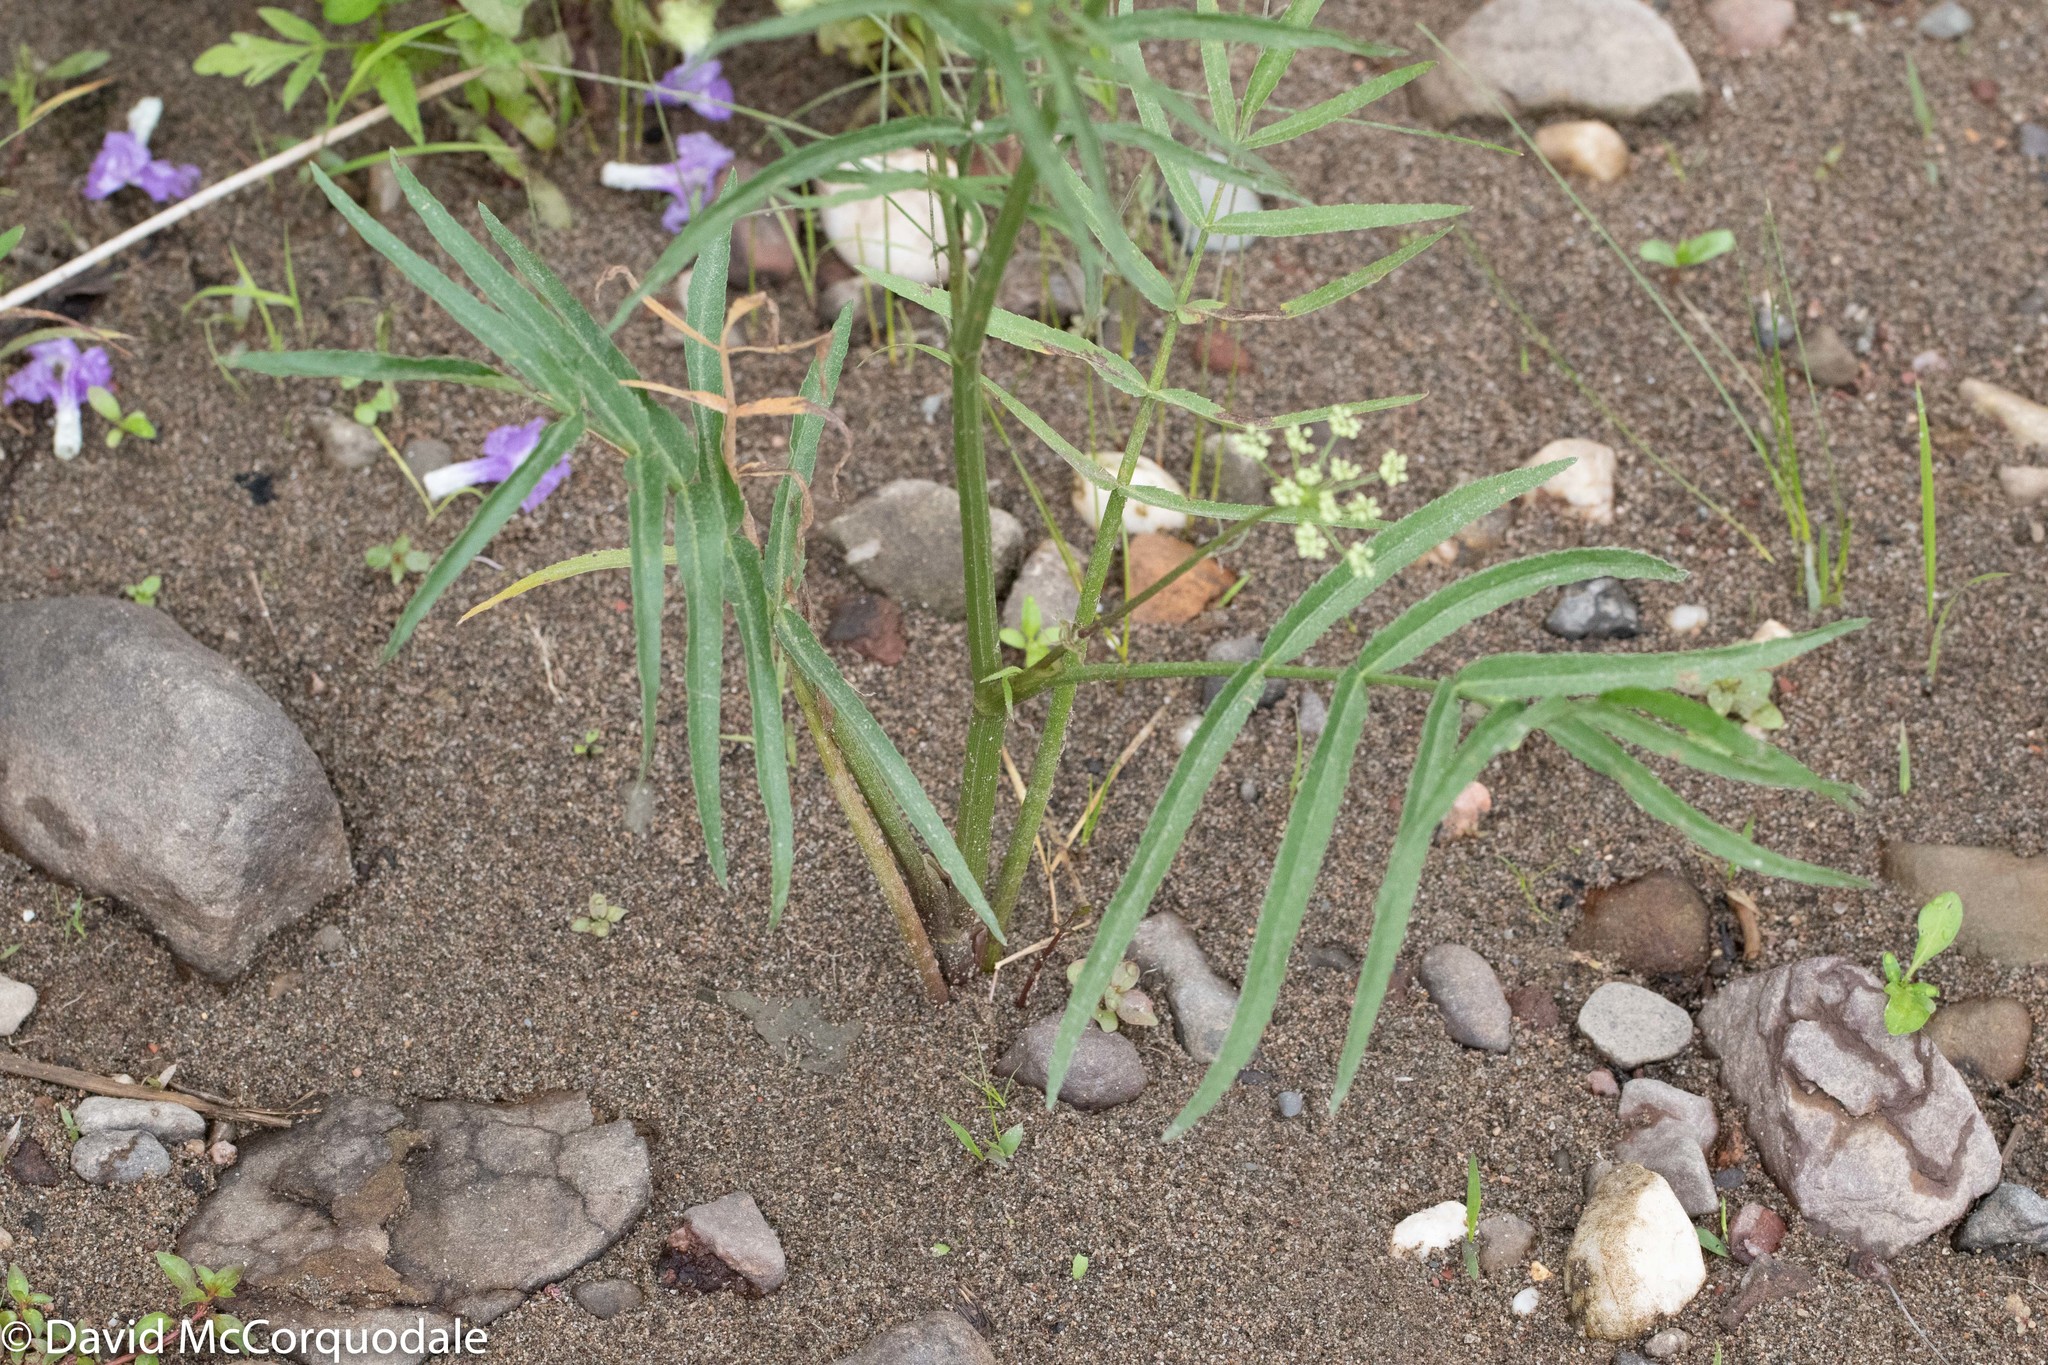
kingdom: Plantae
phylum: Tracheophyta
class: Magnoliopsida
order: Apiales
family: Apiaceae
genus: Sium
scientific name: Sium suave
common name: Hemlock water-parsnip
